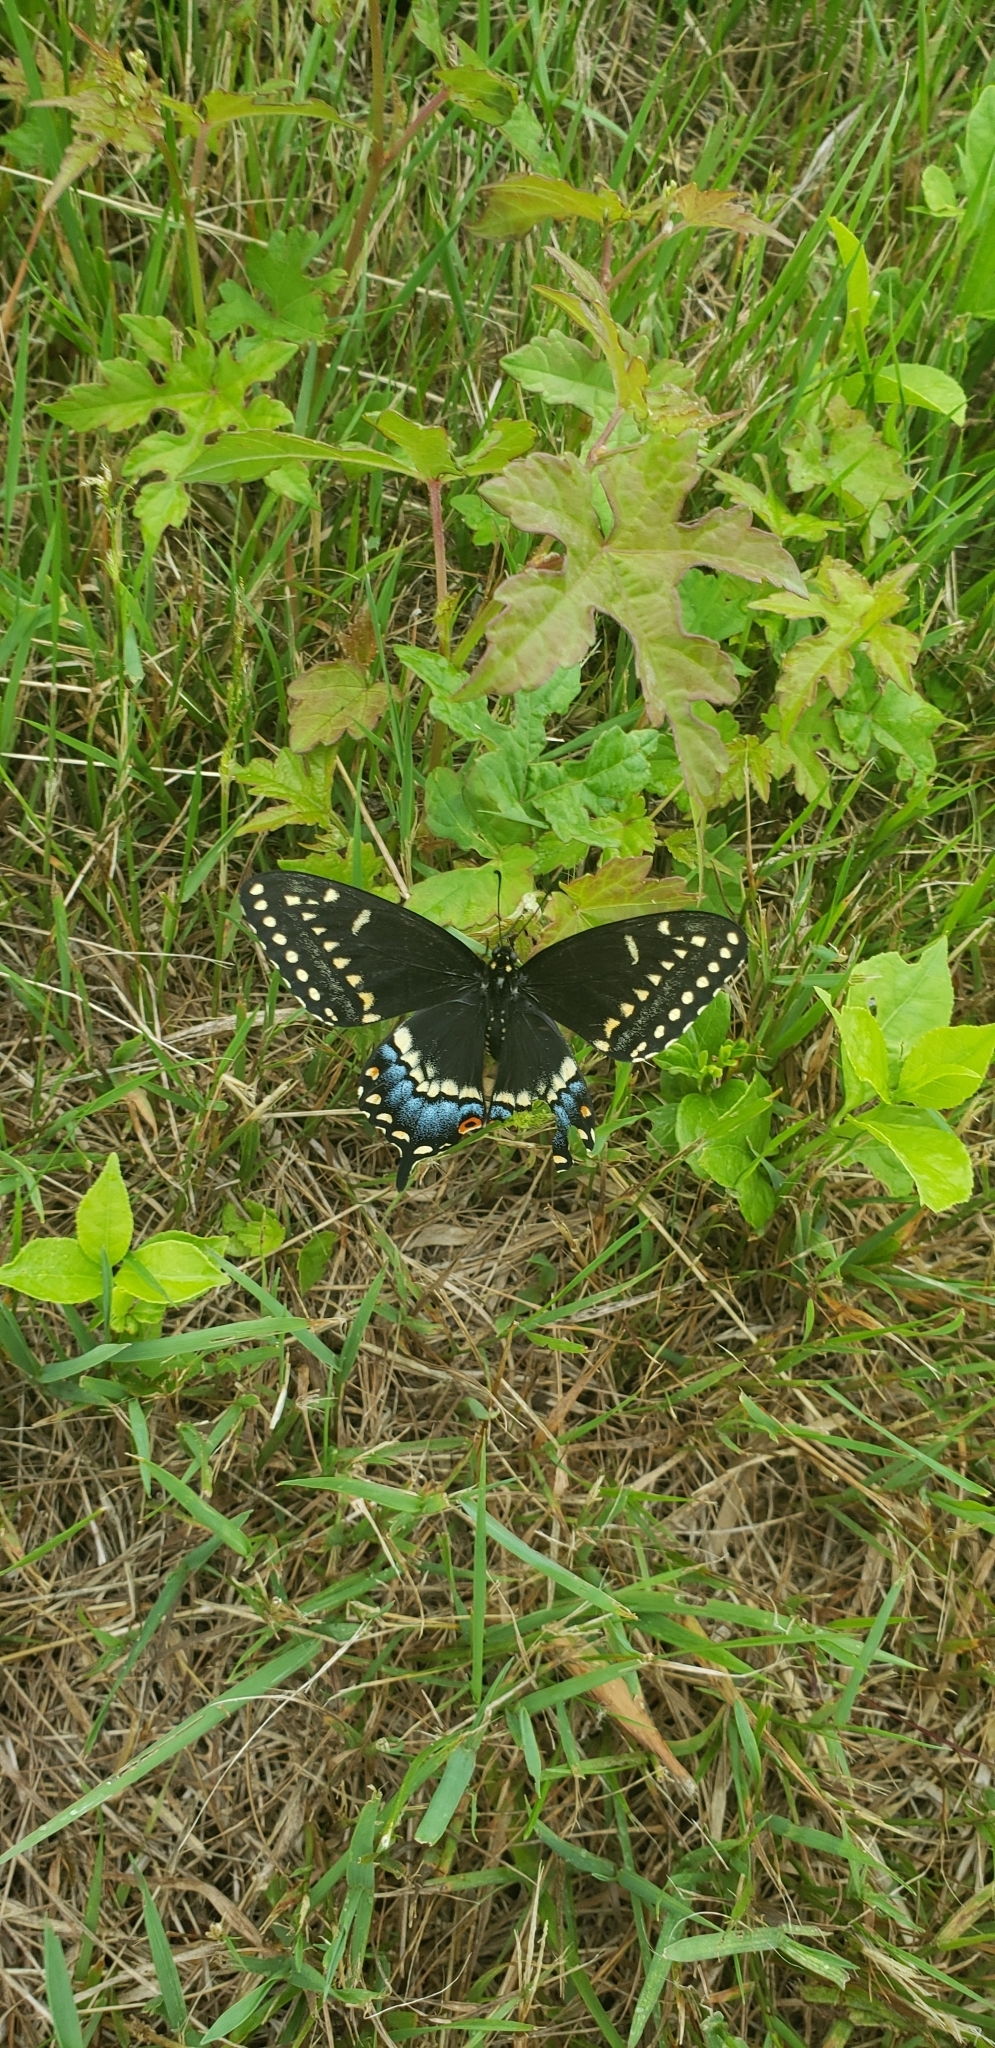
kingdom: Animalia
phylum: Arthropoda
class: Insecta
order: Lepidoptera
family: Papilionidae
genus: Papilio
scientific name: Papilio polyxenes
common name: Black swallowtail
